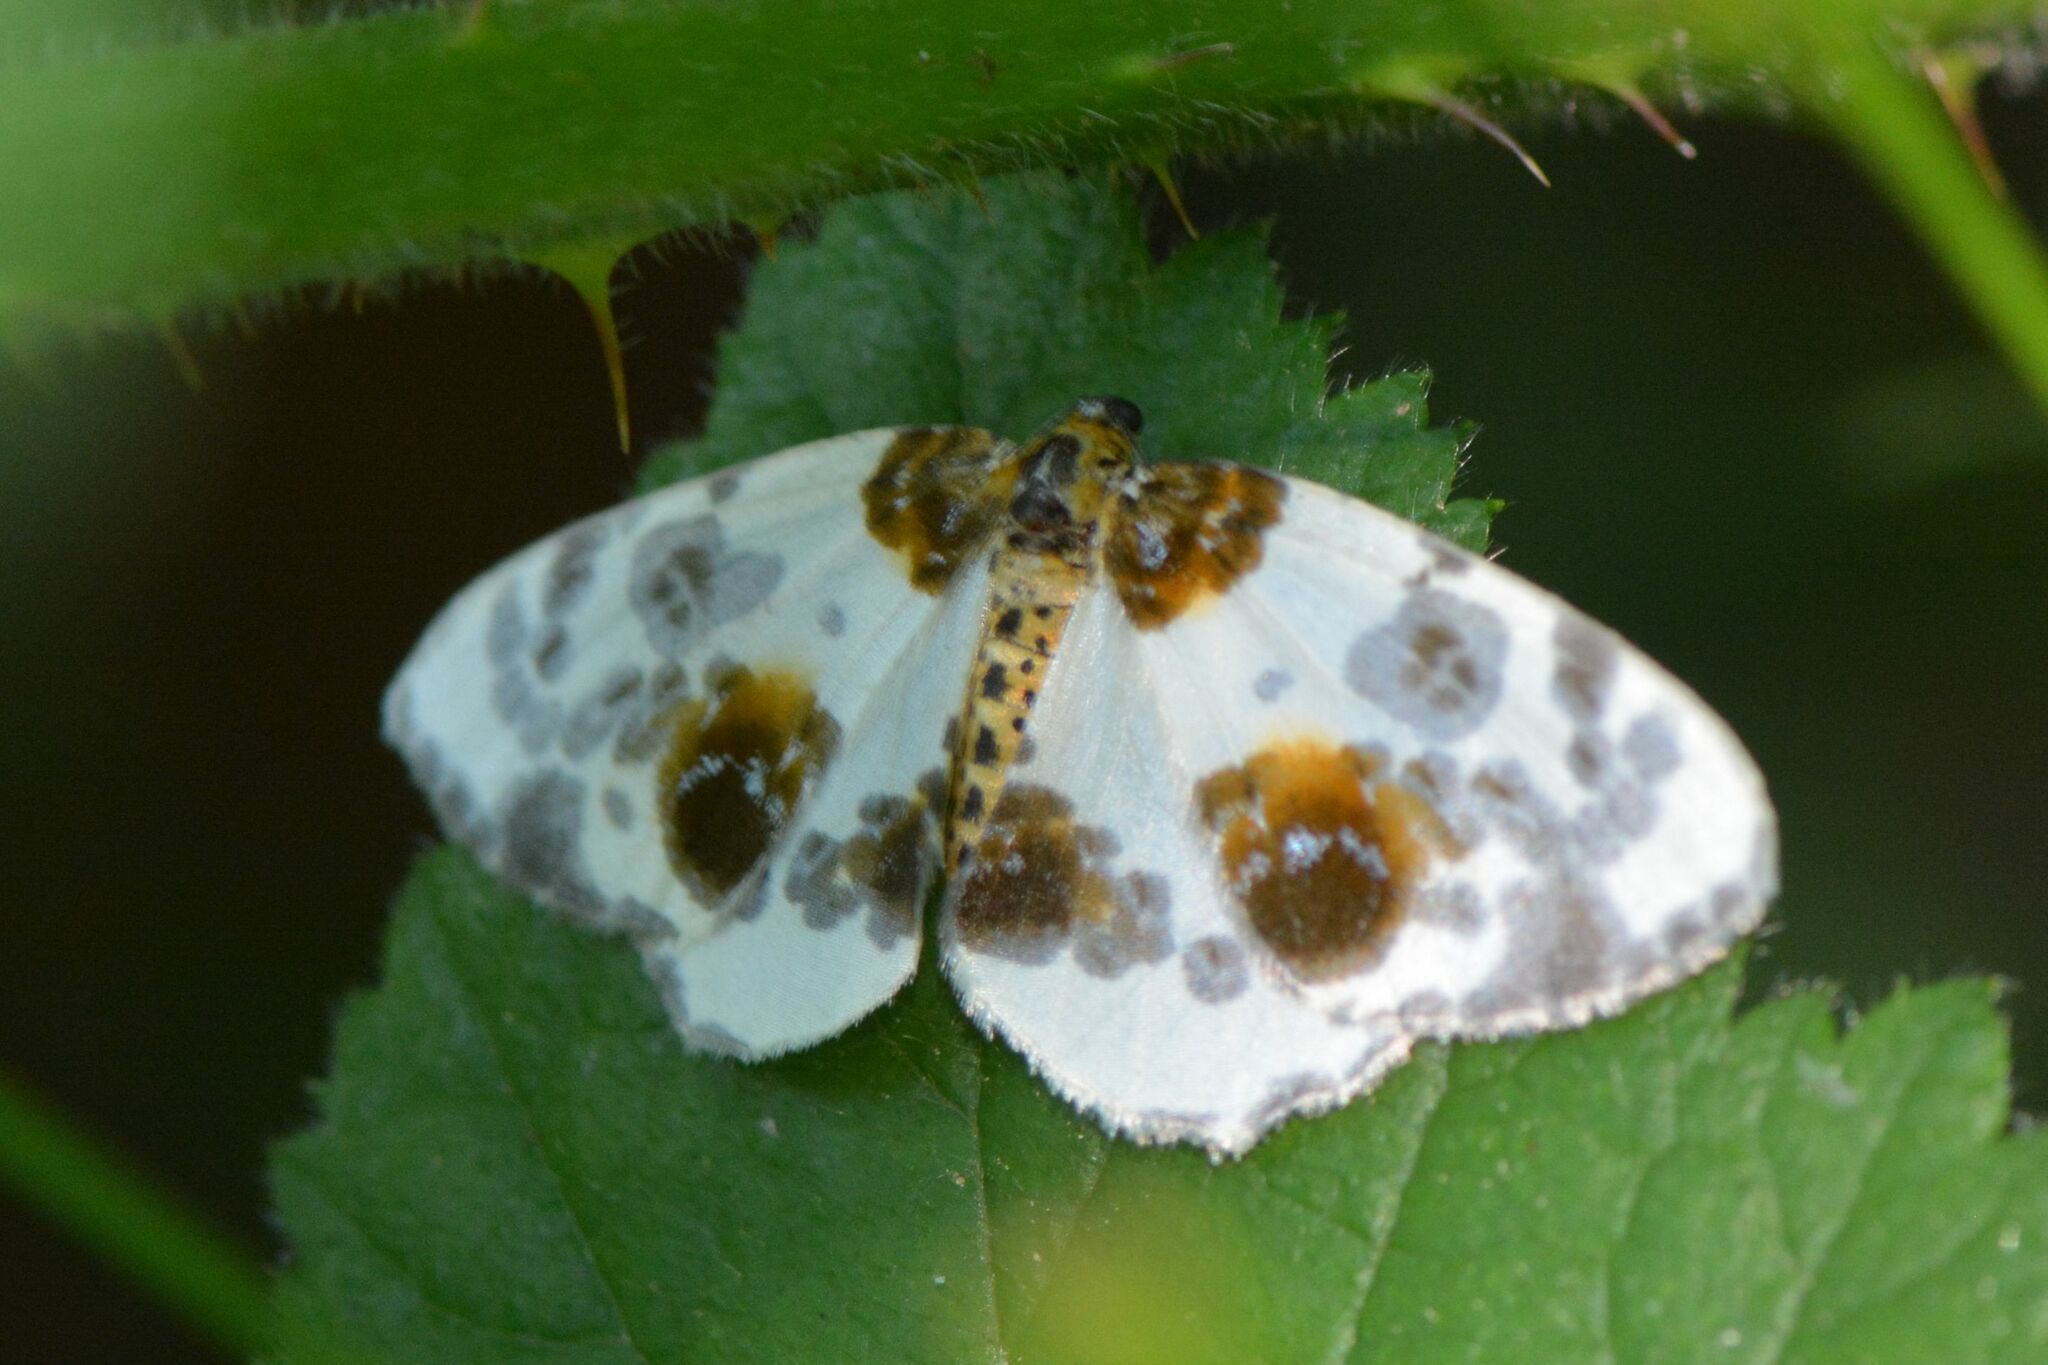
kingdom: Animalia
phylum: Arthropoda
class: Insecta
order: Lepidoptera
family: Geometridae
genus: Abraxas
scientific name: Abraxas sylvata
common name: Clouded magpie
